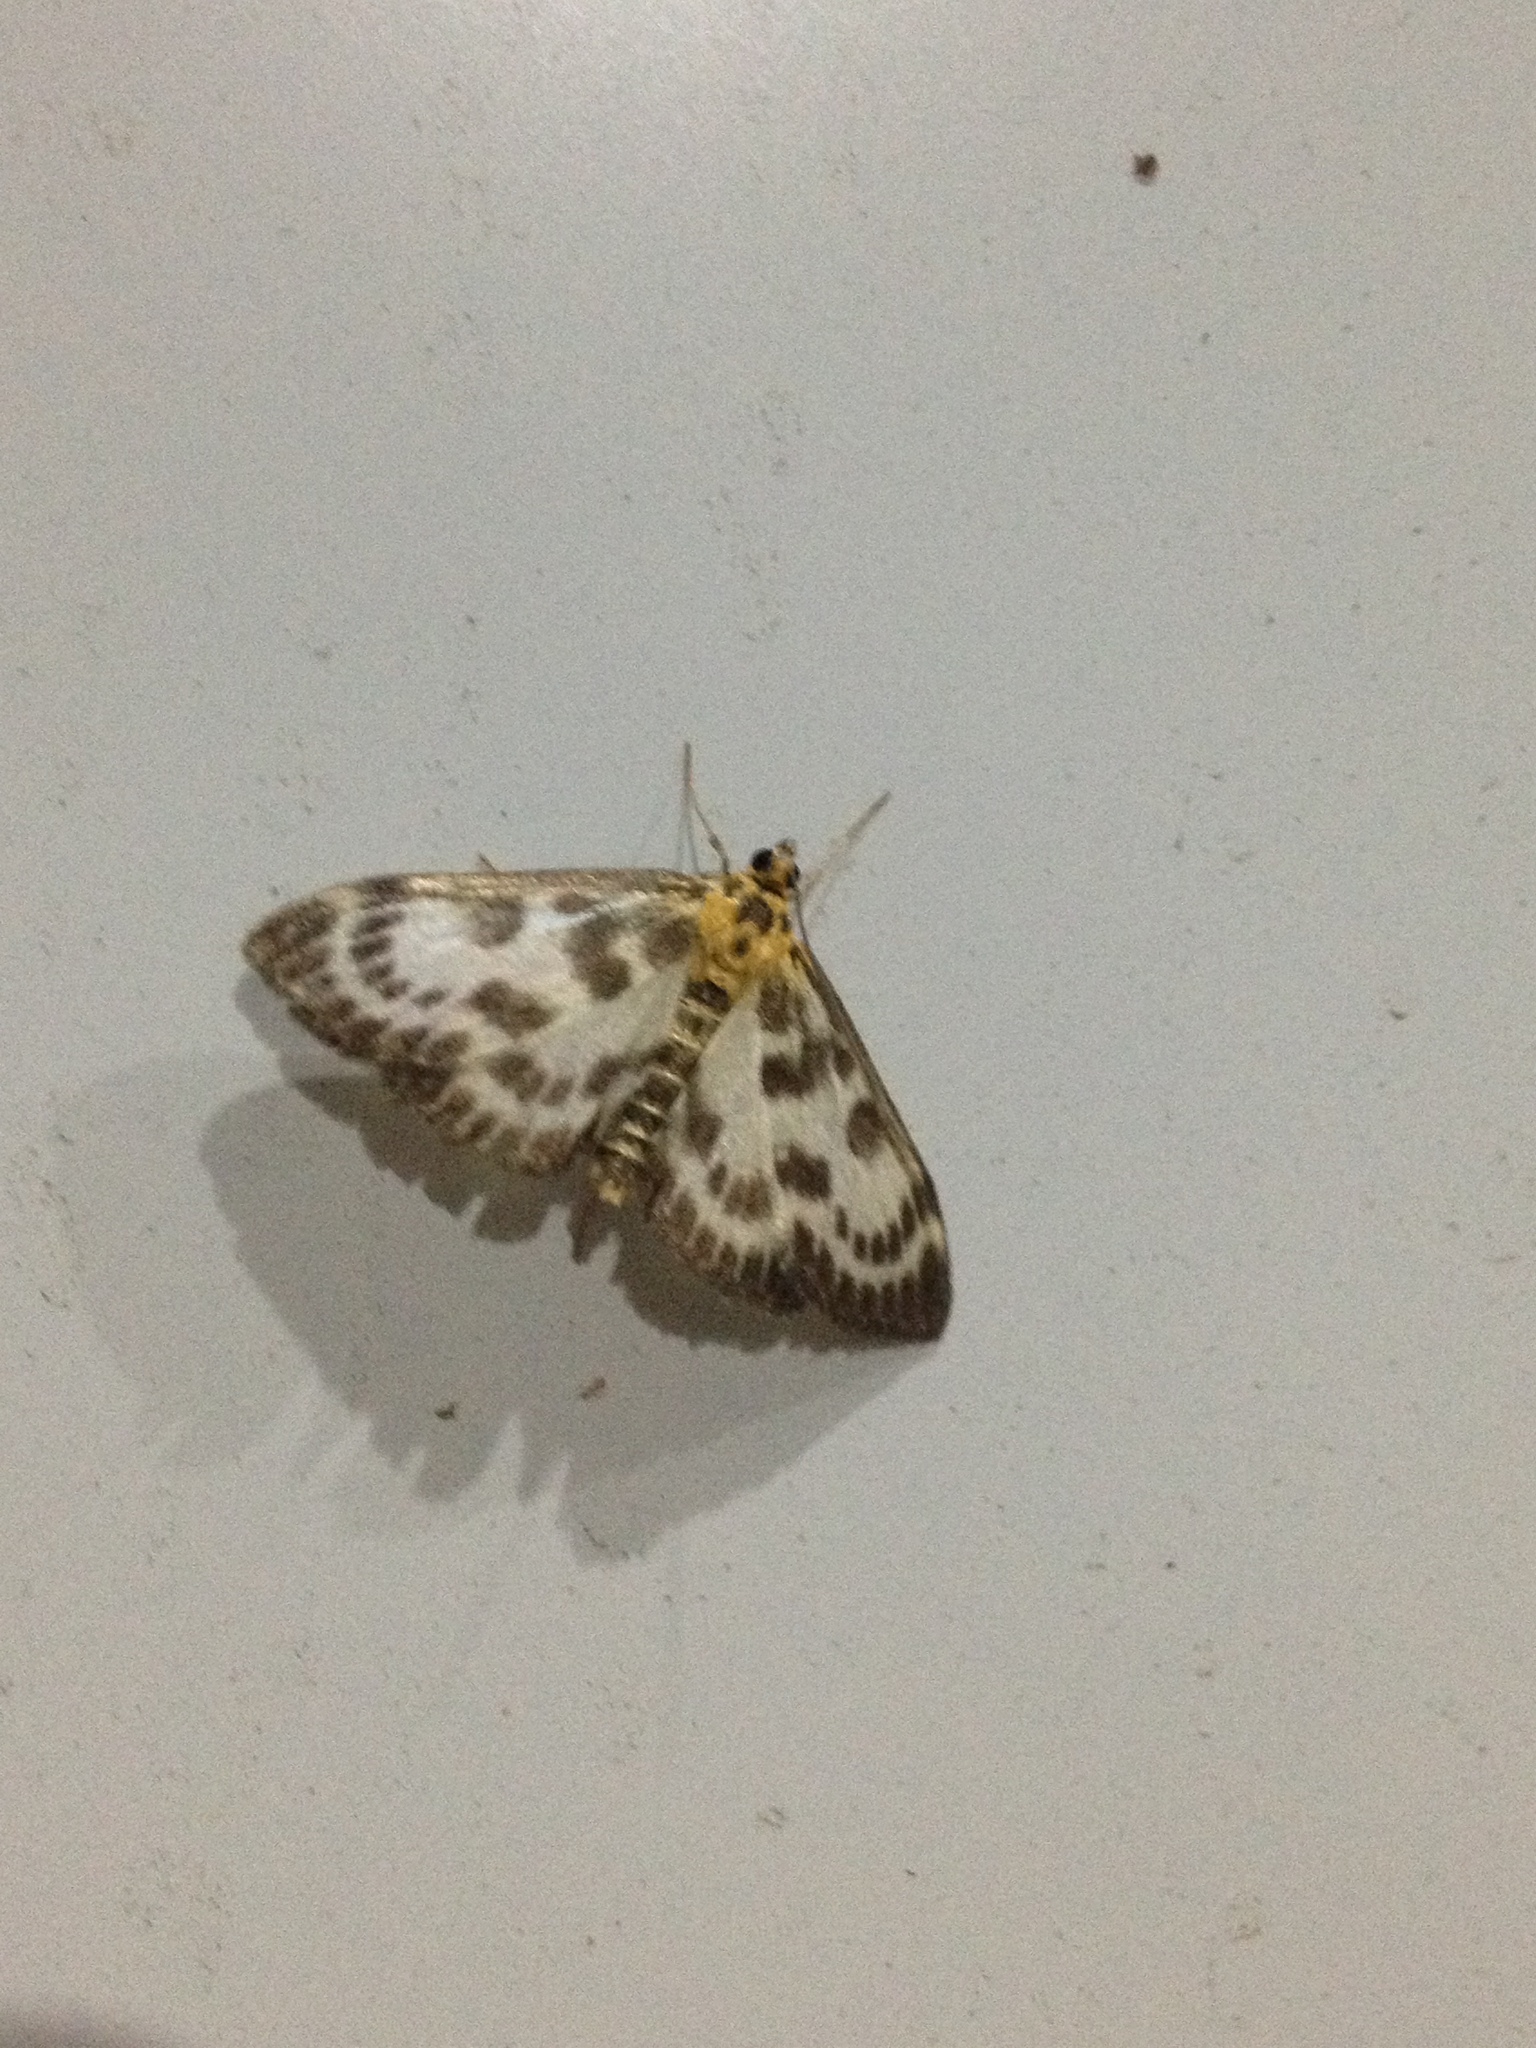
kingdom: Animalia
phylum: Arthropoda
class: Insecta
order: Lepidoptera
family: Crambidae
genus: Anania
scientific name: Anania hortulata
